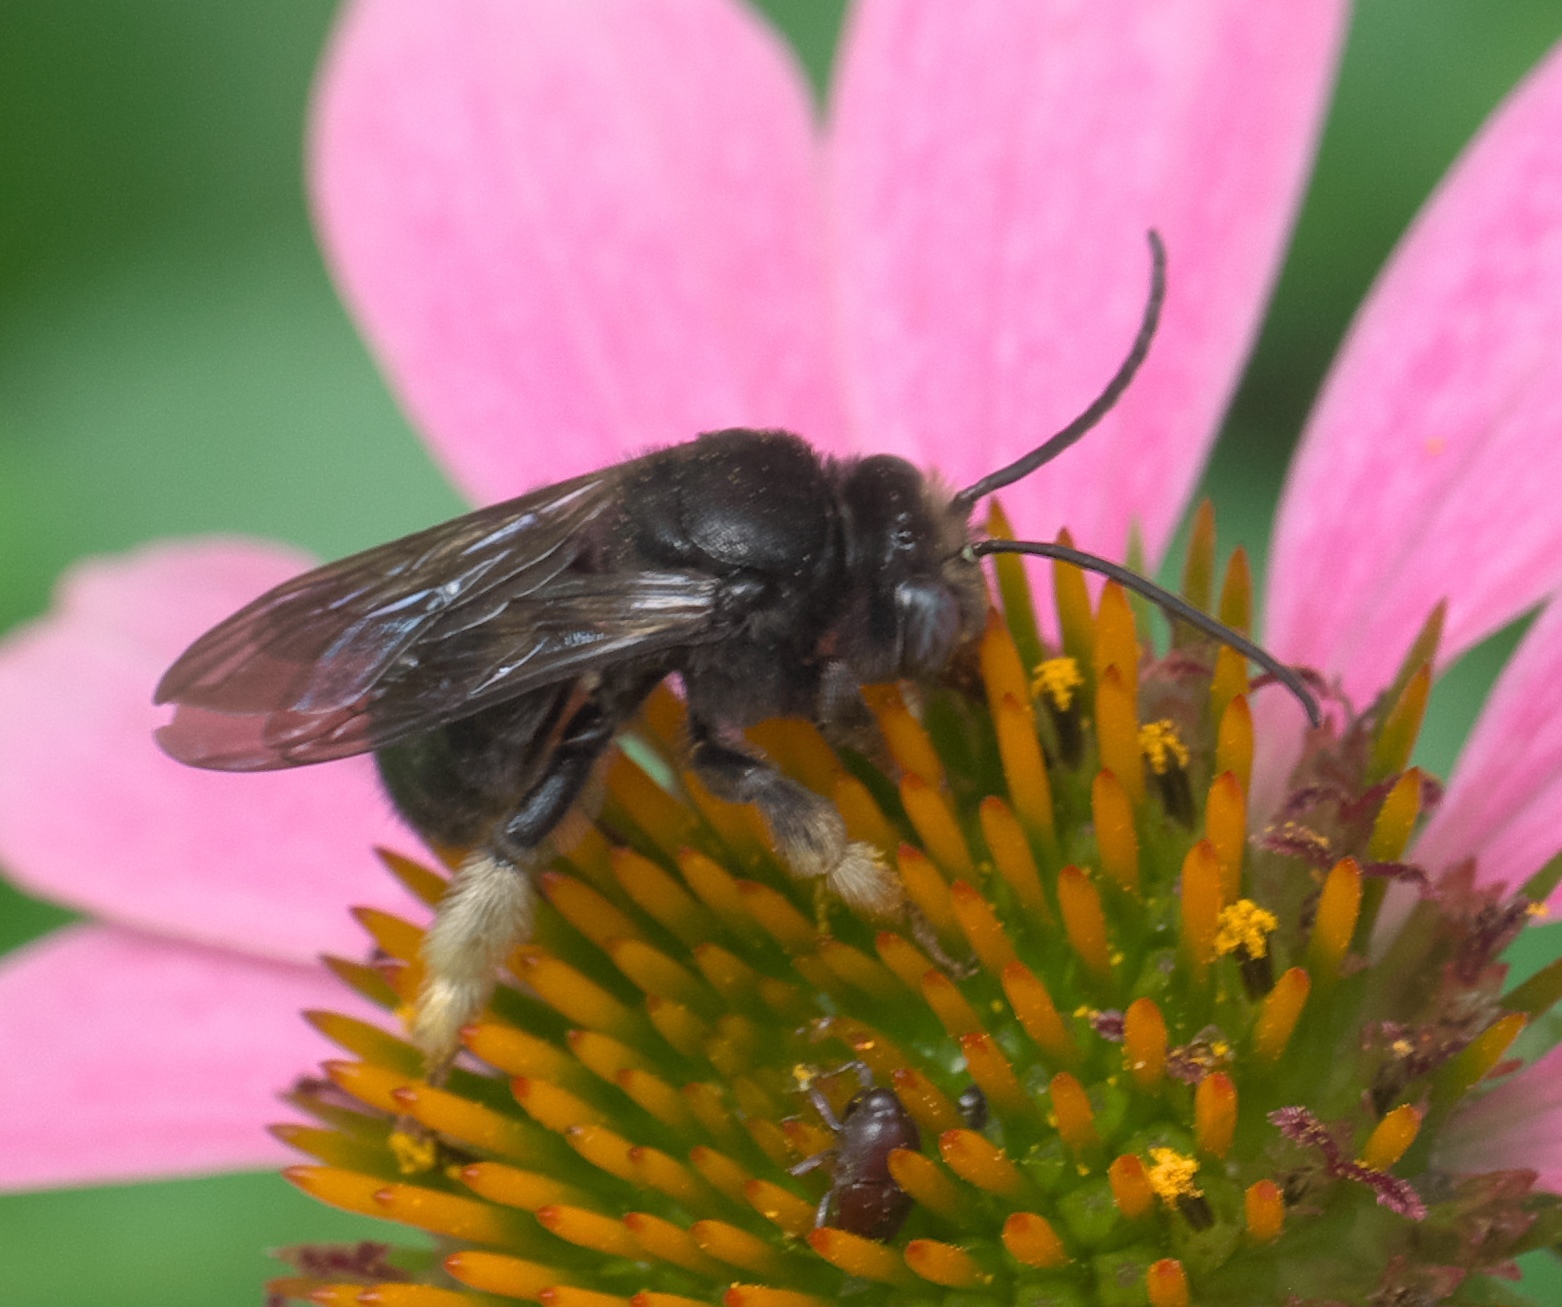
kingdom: Animalia
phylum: Arthropoda
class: Insecta
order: Hymenoptera
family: Apidae
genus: Melissodes
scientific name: Melissodes bimaculatus
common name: Two-spotted long-horned bee
